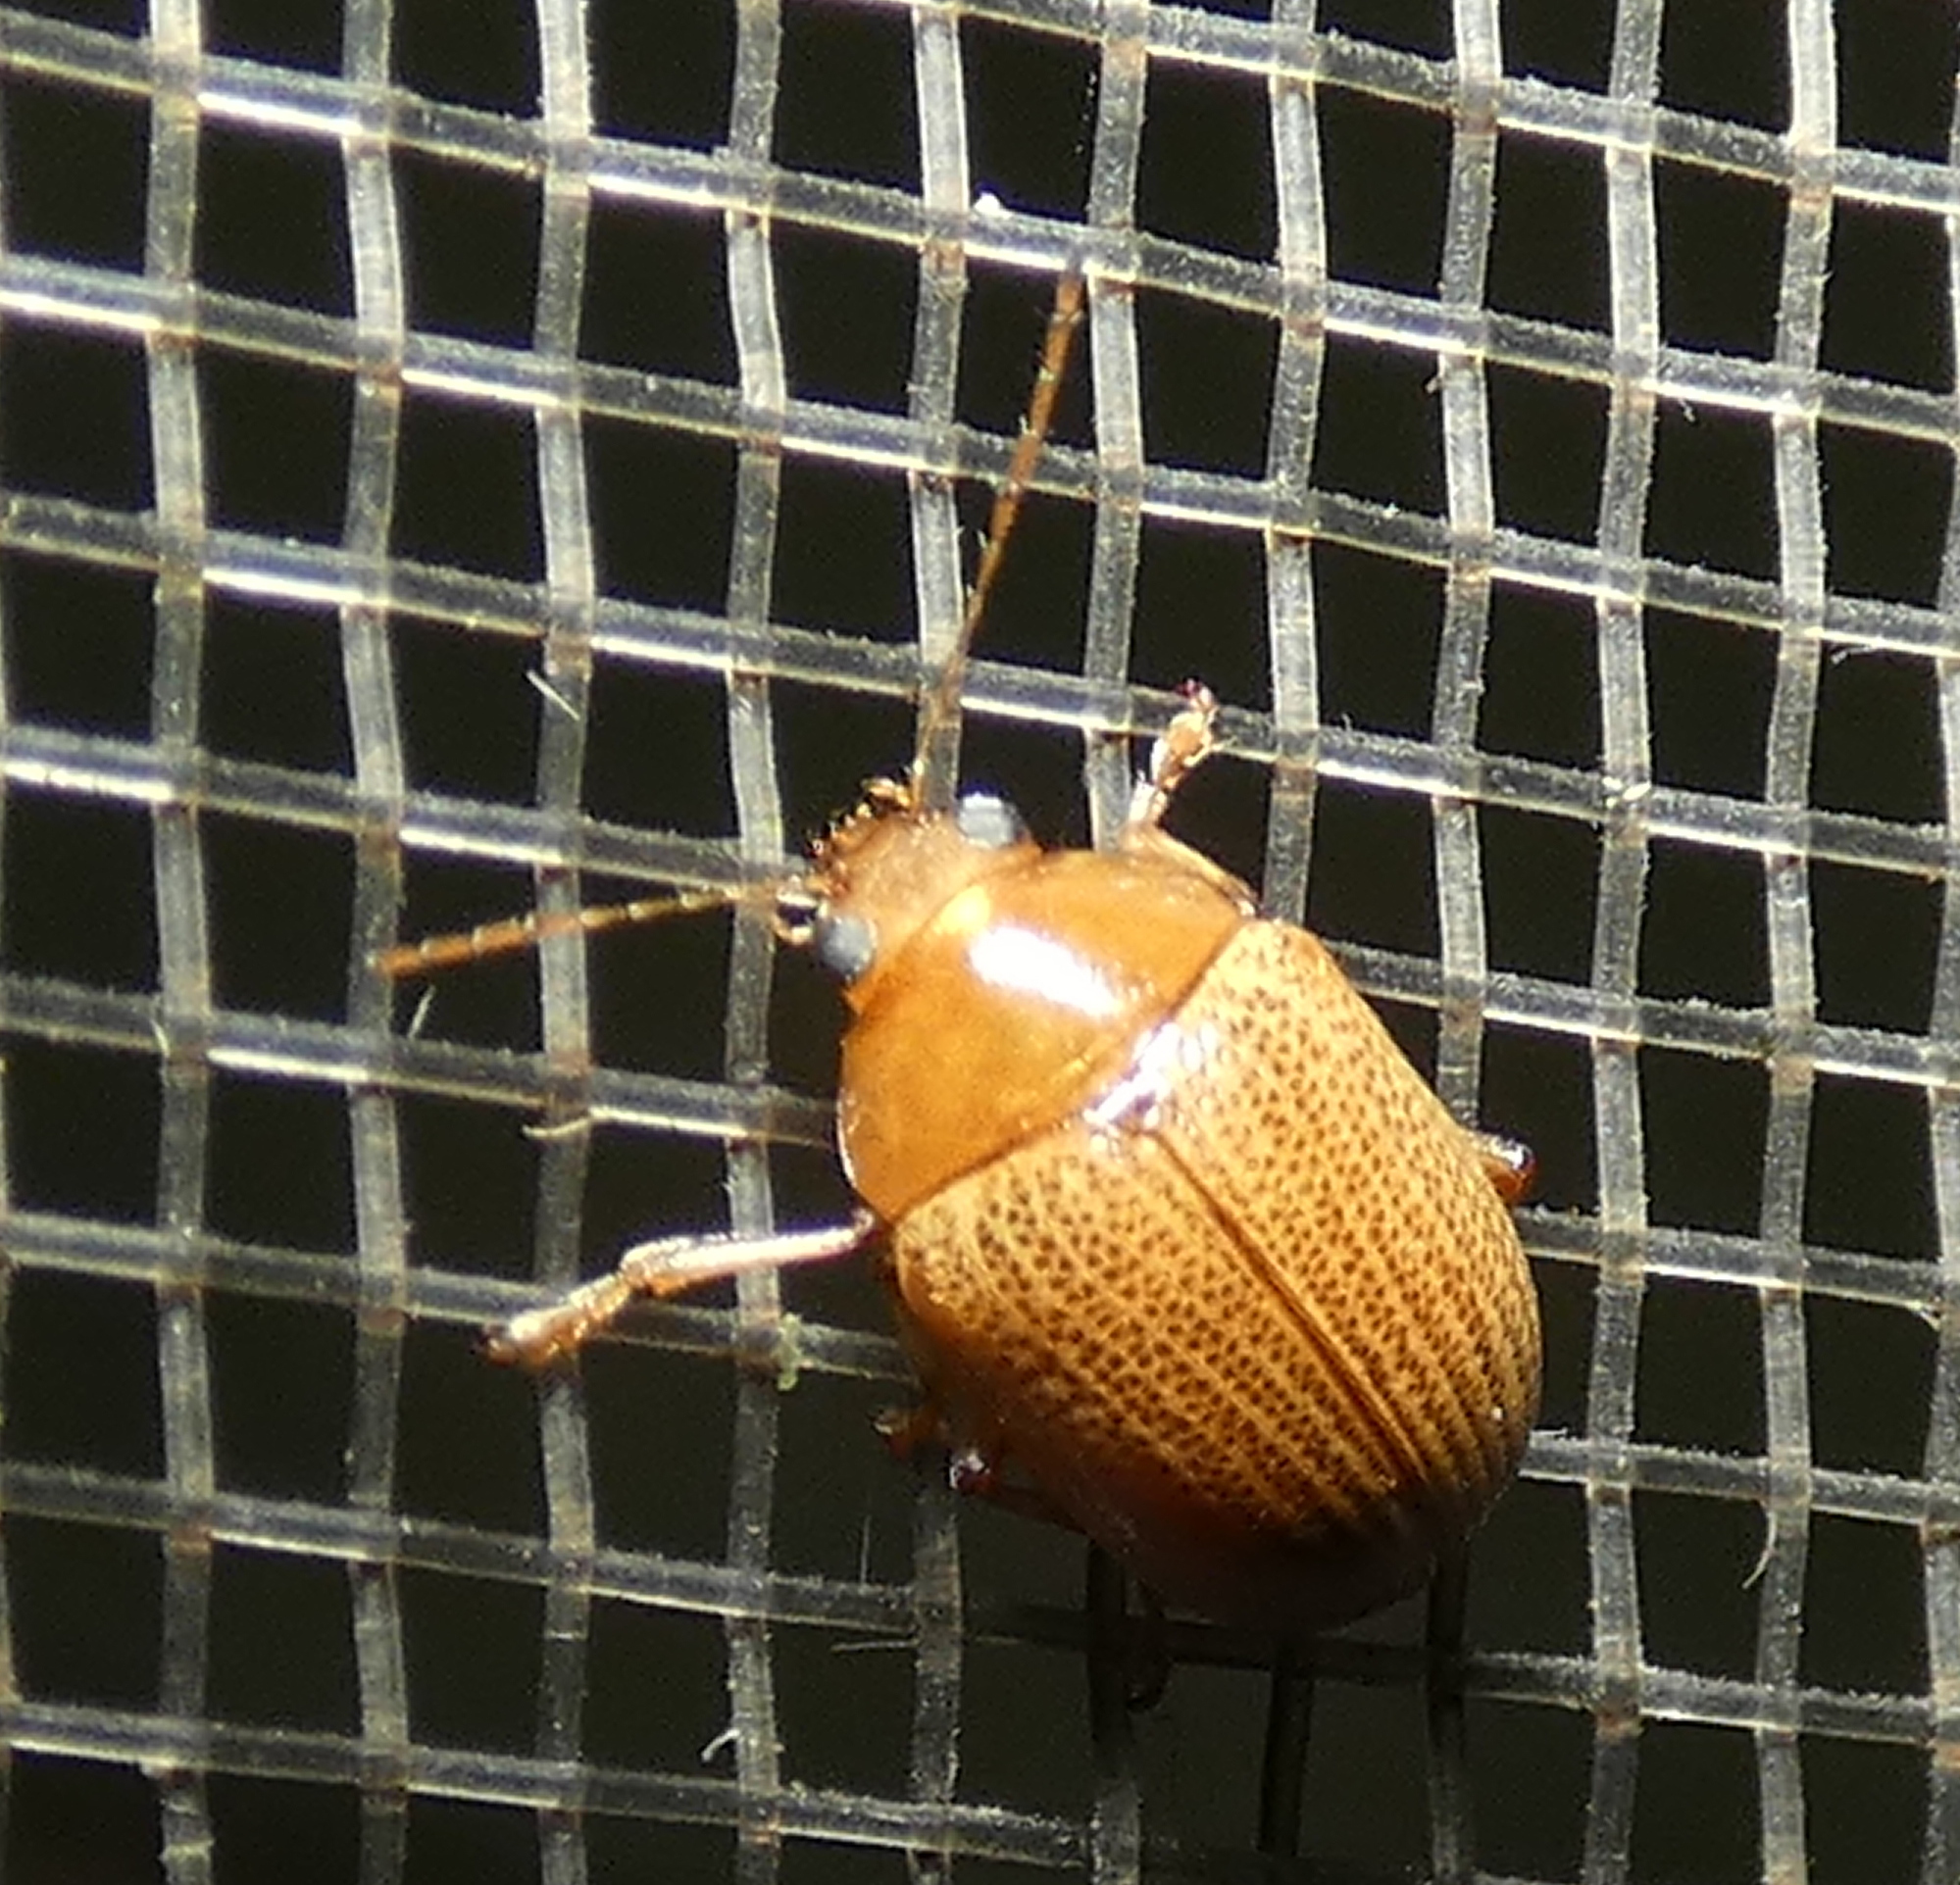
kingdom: Animalia
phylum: Arthropoda
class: Insecta
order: Coleoptera
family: Chrysomelidae
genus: Anisodera
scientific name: Anisodera ferruginea
